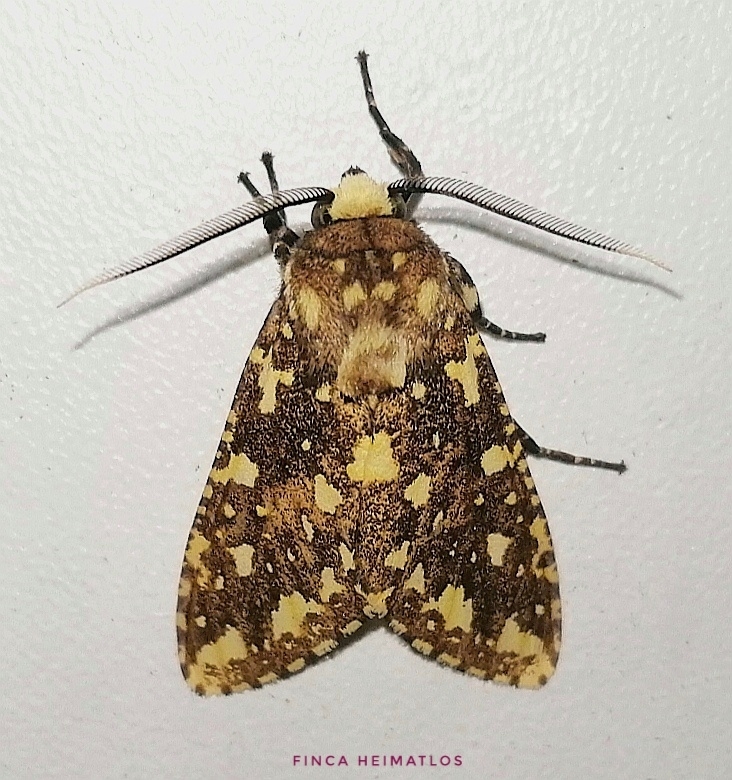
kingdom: Animalia
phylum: Arthropoda
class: Insecta
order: Lepidoptera
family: Erebidae
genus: Symphlebia
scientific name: Symphlebia
